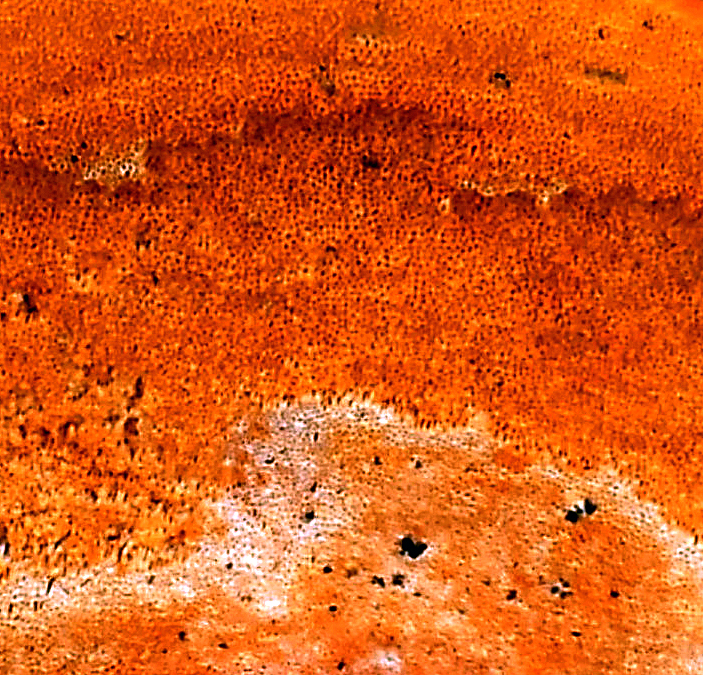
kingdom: Fungi
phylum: Basidiomycota
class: Agaricomycetes
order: Polyporales
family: Polyporaceae
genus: Trametes
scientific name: Trametes coccinea
